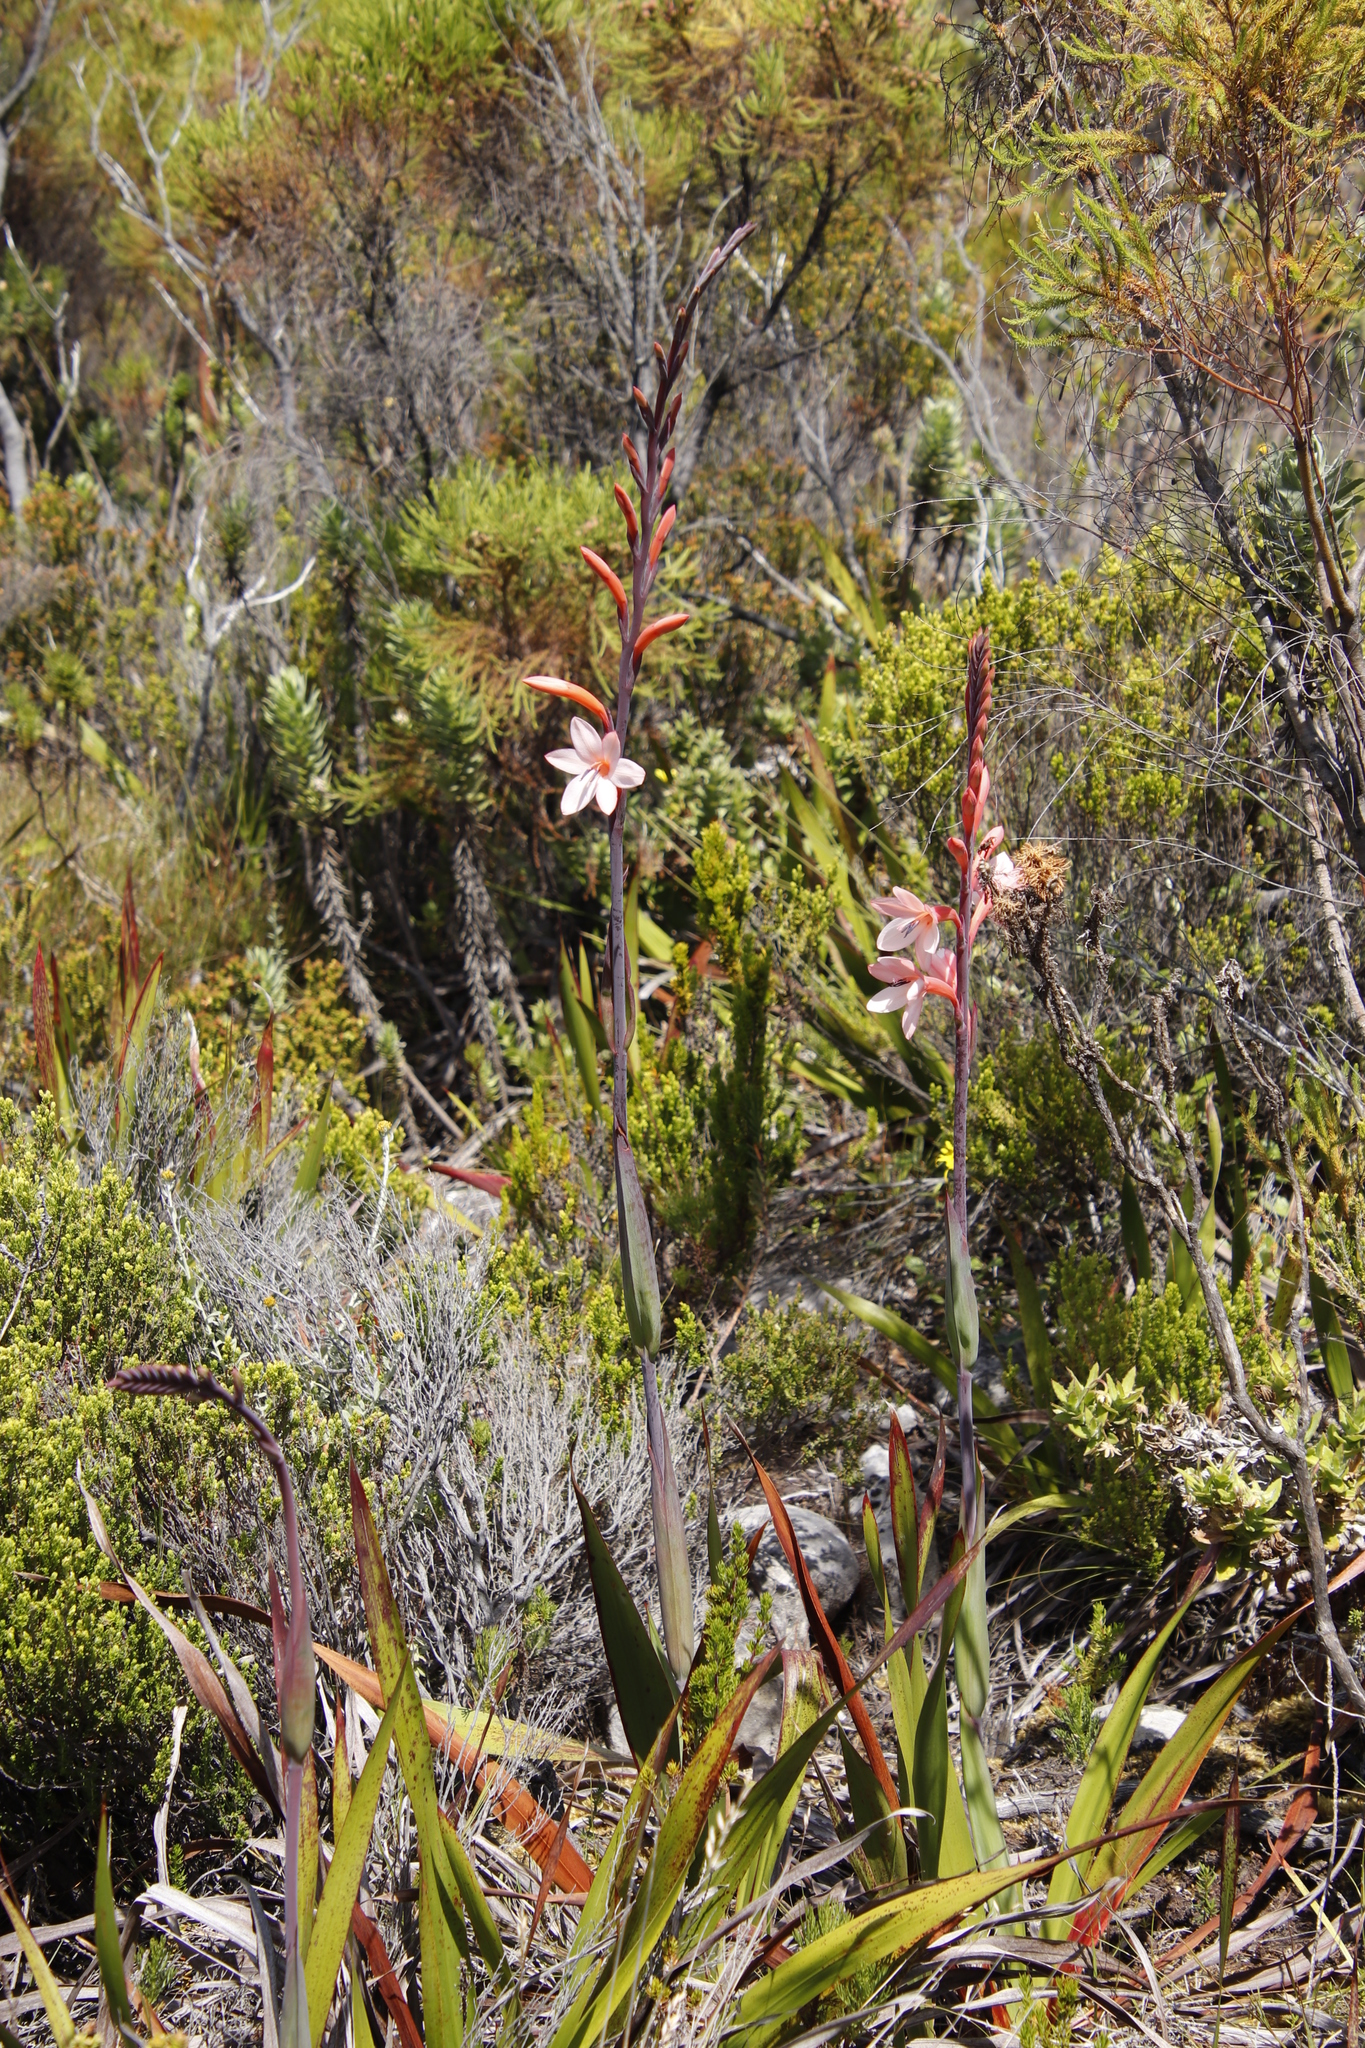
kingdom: Plantae
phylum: Tracheophyta
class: Liliopsida
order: Asparagales
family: Iridaceae
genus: Watsonia
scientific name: Watsonia tabularis
